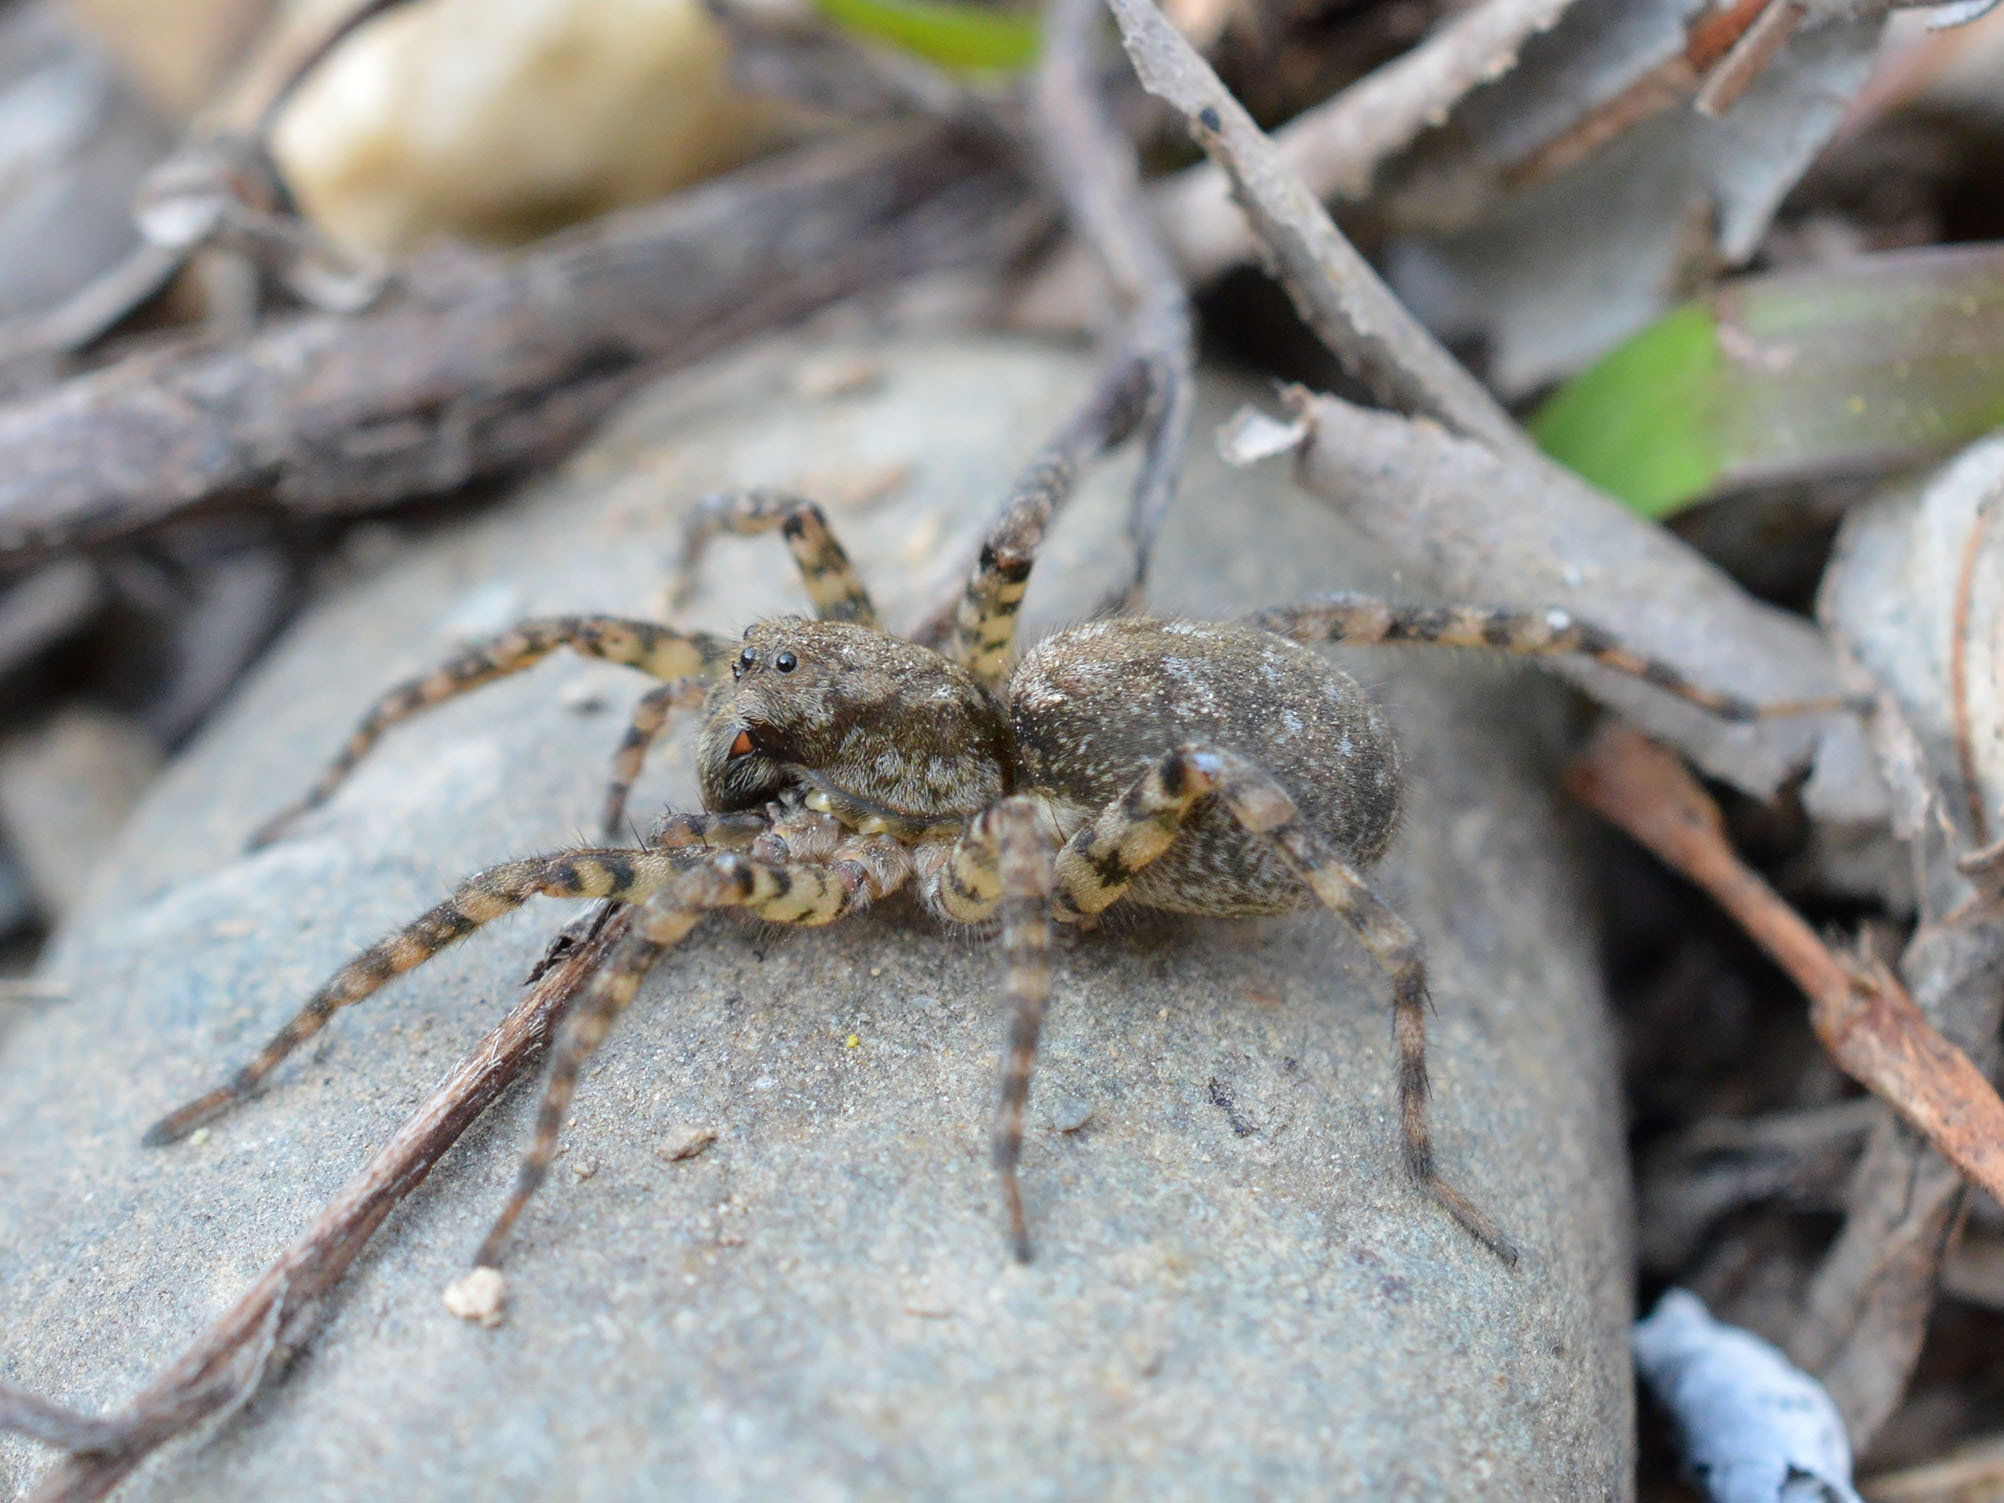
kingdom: Animalia
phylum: Arthropoda
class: Arachnida
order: Araneae
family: Lycosidae
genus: Arctosa
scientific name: Arctosa maculata
